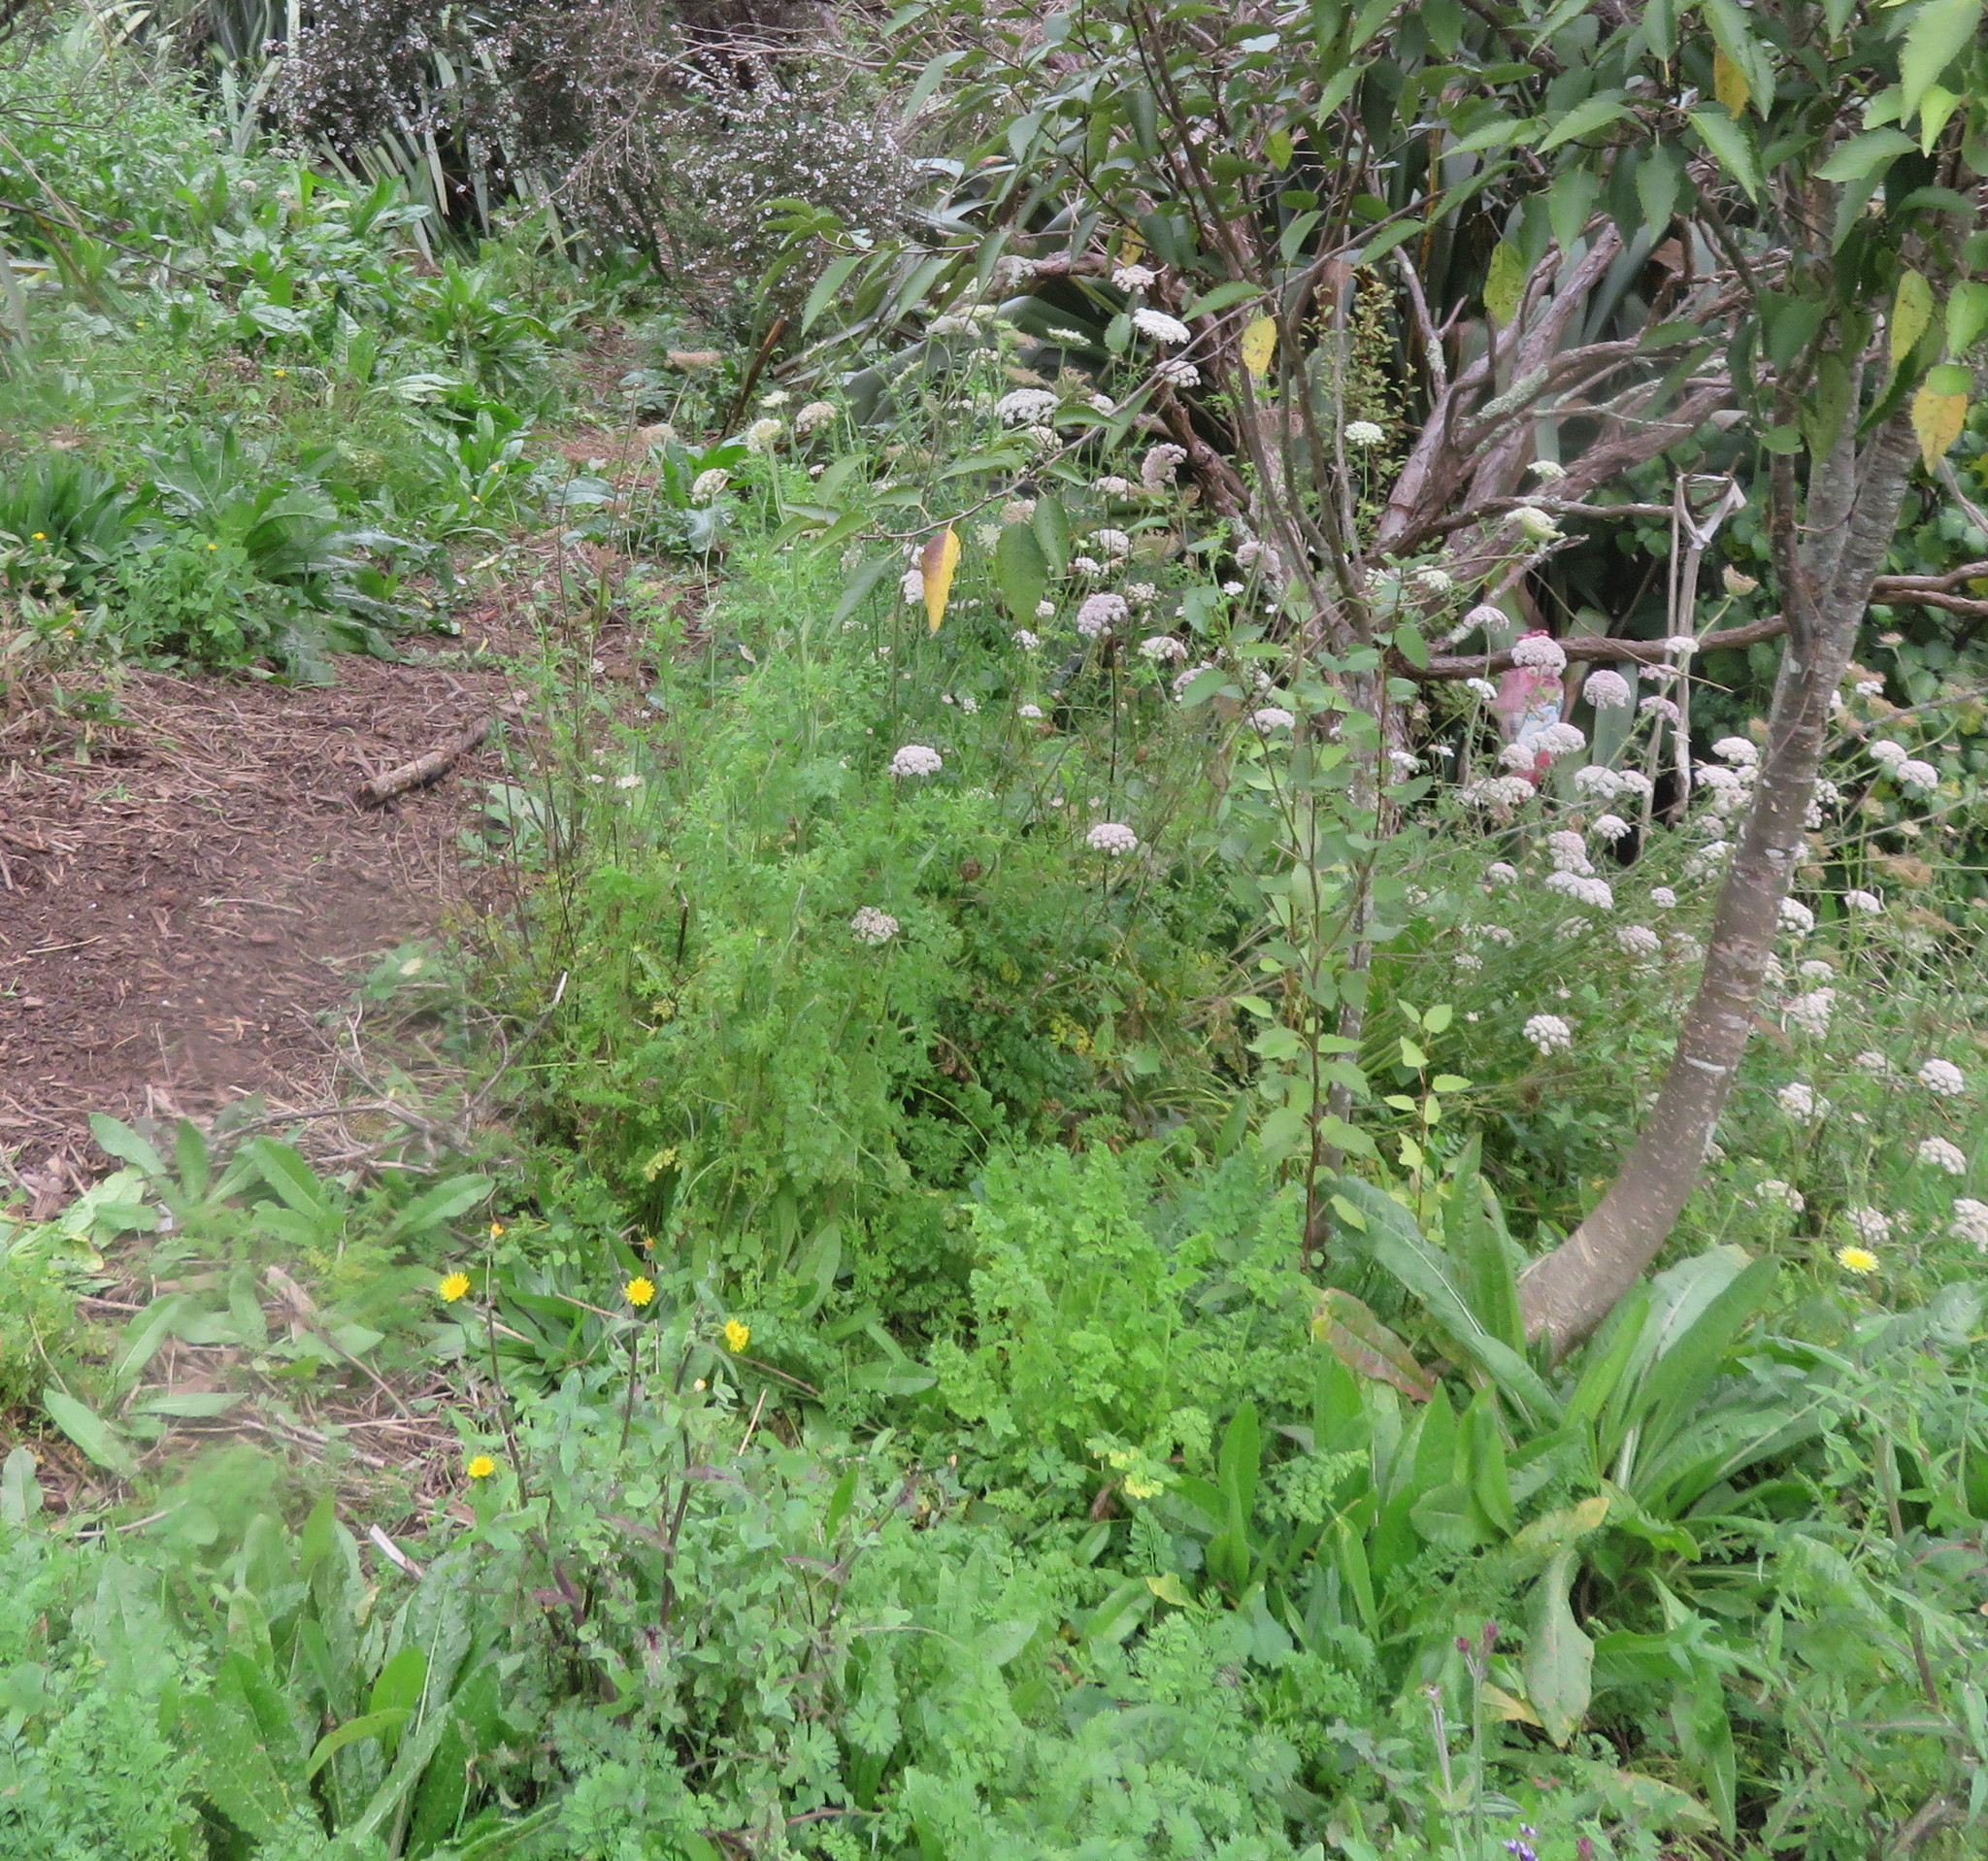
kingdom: Plantae
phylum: Tracheophyta
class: Magnoliopsida
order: Apiales
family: Apiaceae
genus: Daucus
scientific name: Daucus carota
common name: Wild carrot
